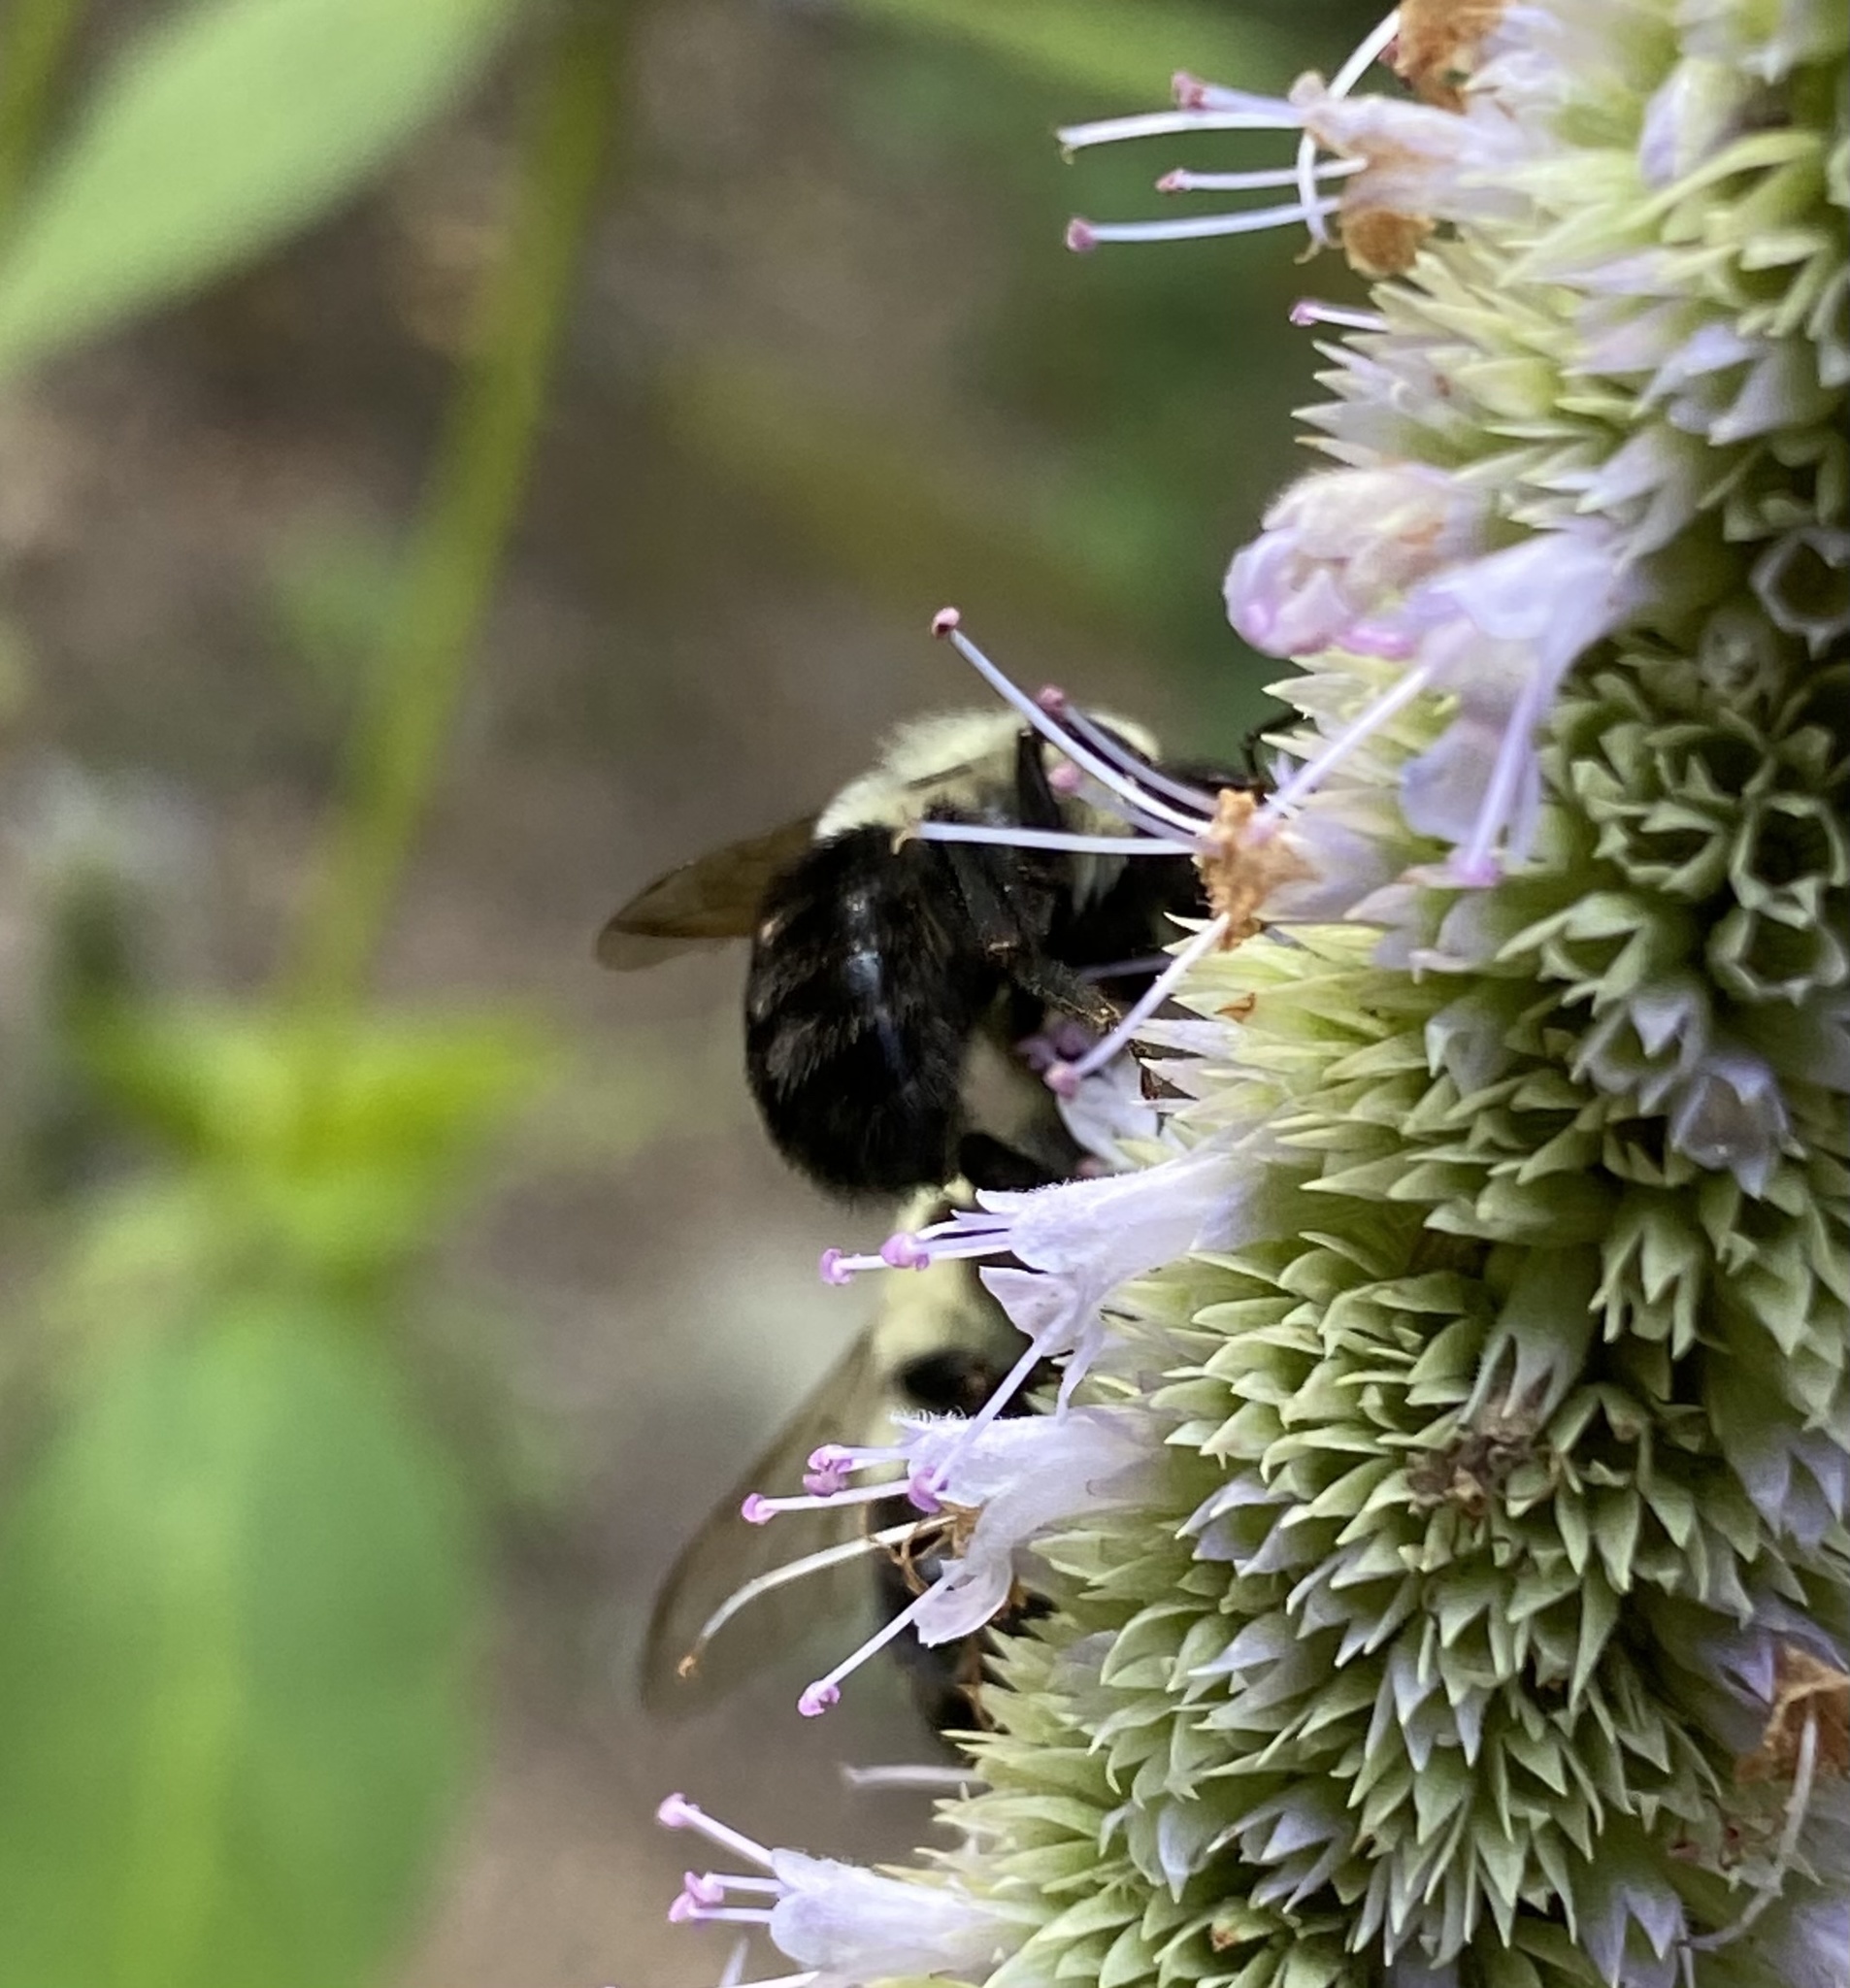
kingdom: Animalia
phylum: Arthropoda
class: Insecta
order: Hymenoptera
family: Apidae
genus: Bombus
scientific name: Bombus impatiens
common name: Common eastern bumble bee
